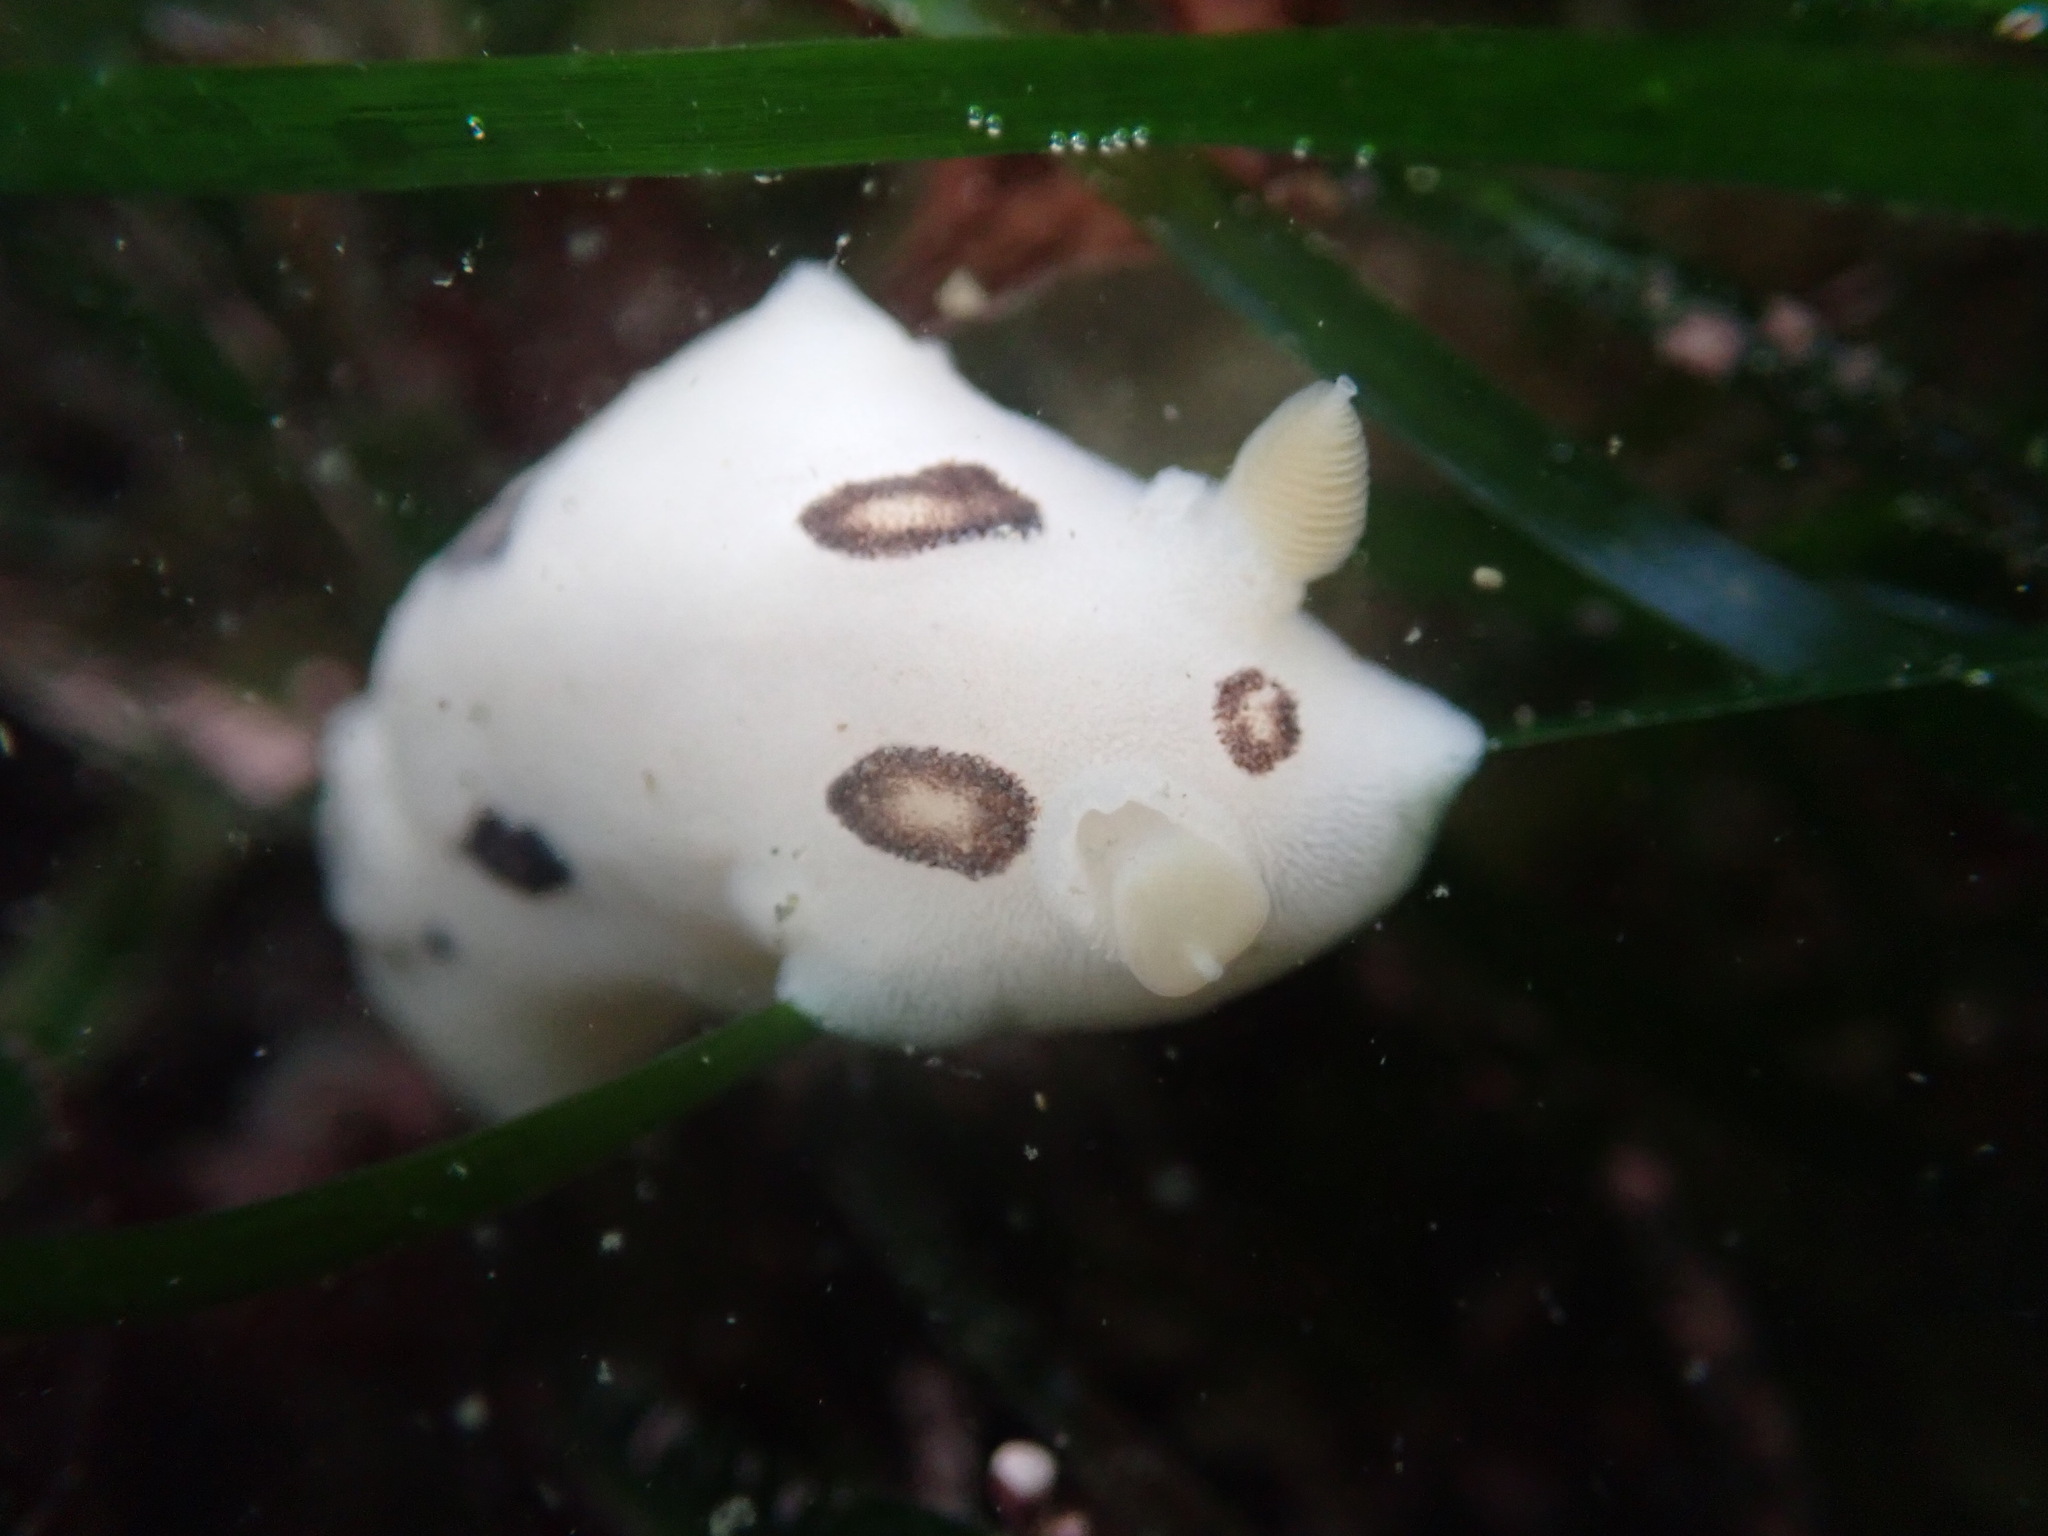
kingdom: Animalia
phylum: Mollusca
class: Gastropoda
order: Nudibranchia
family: Discodorididae
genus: Diaulula
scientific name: Diaulula sandiegensis
